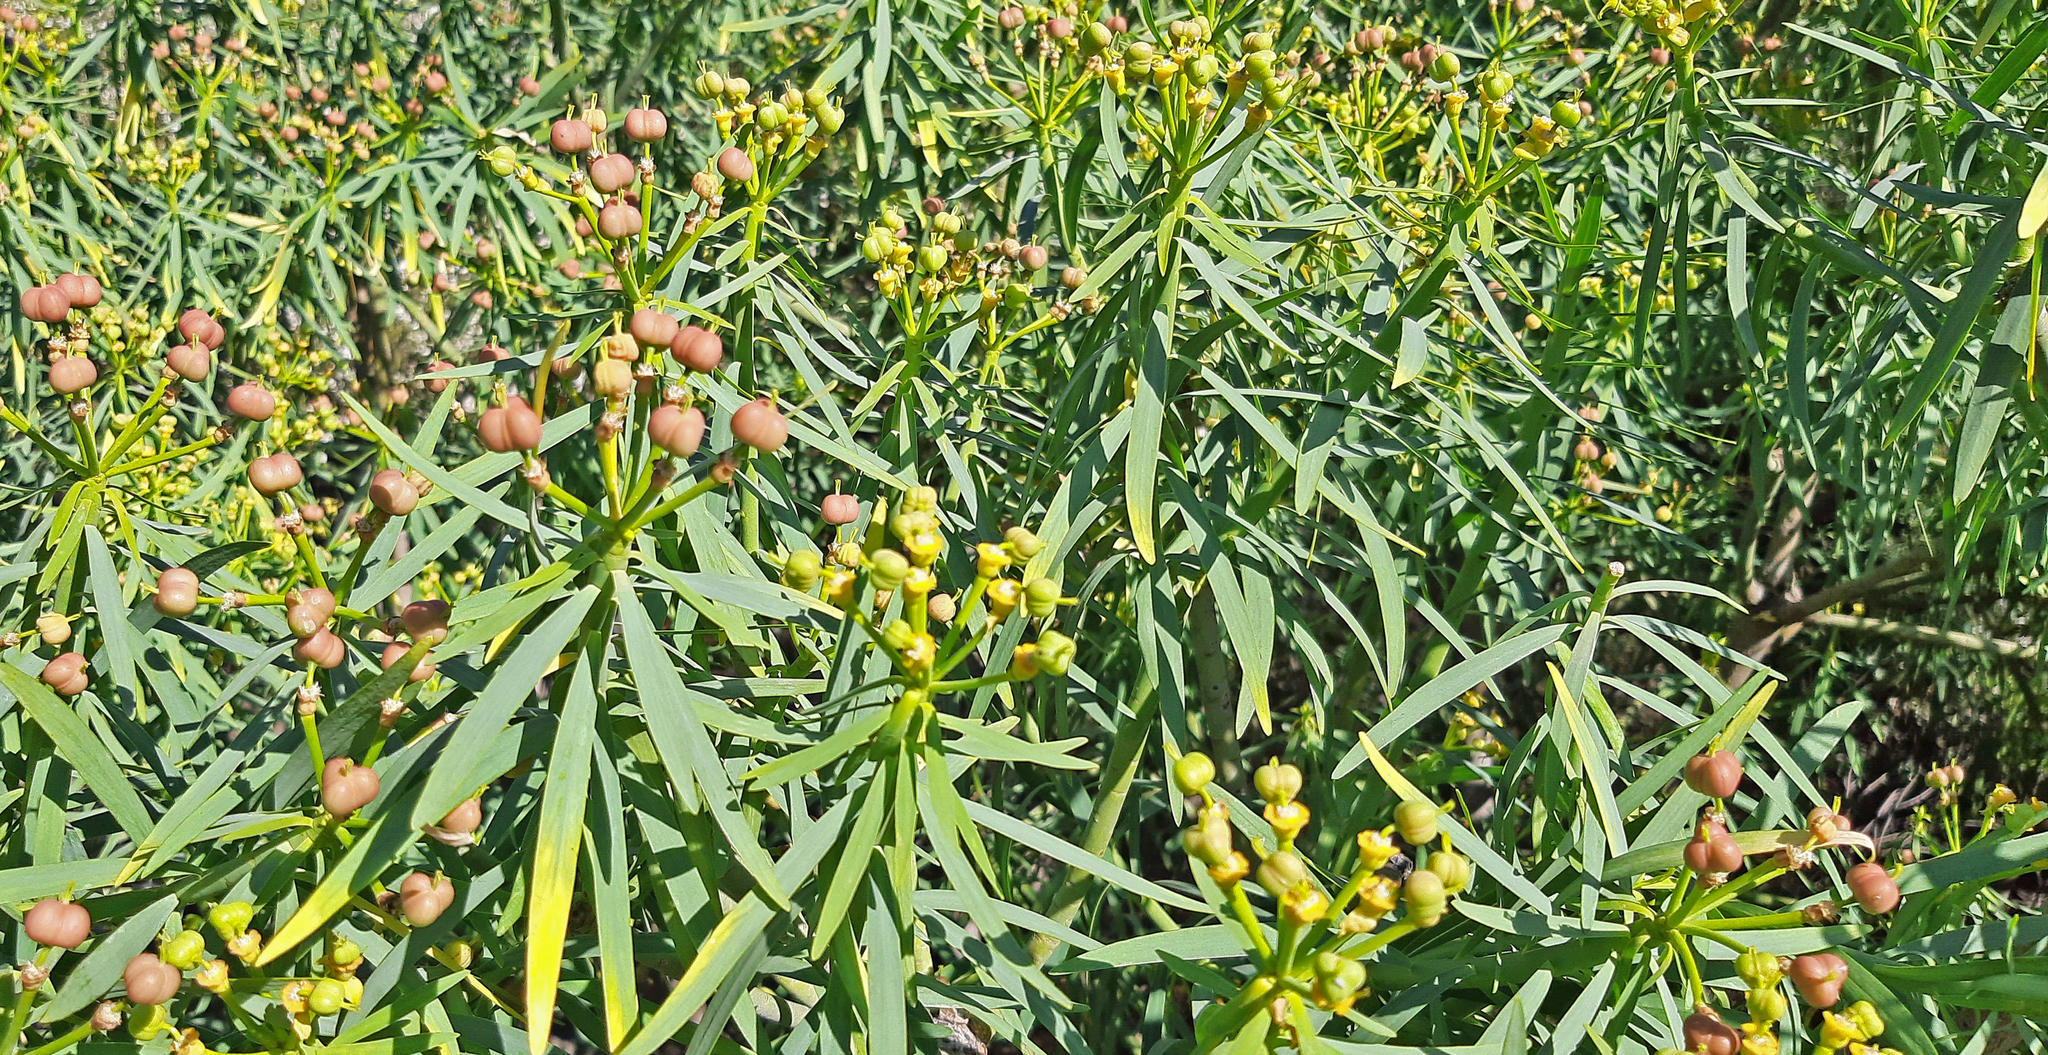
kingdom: Plantae
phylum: Tracheophyta
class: Magnoliopsida
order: Malpighiales
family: Euphorbiaceae
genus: Euphorbia
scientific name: Euphorbia lamarckii
